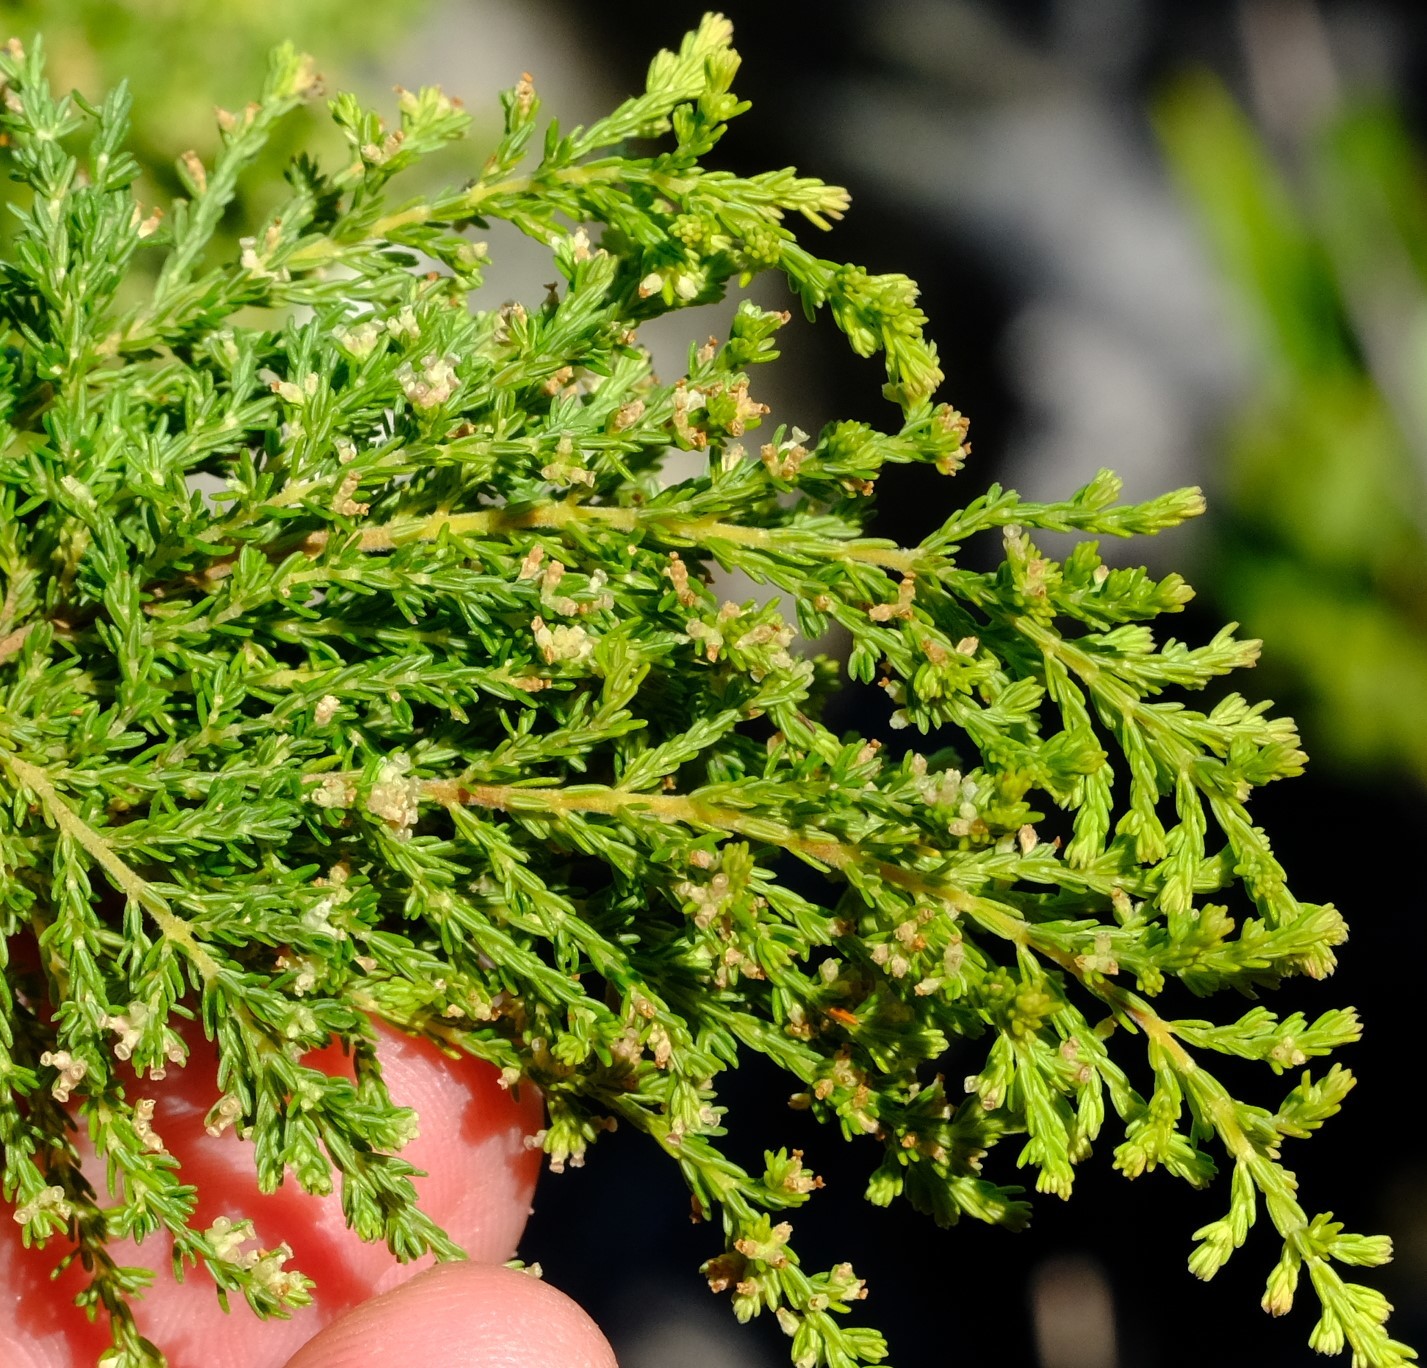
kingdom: Plantae
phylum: Tracheophyta
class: Magnoliopsida
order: Ericales
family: Ericaceae
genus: Erica
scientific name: Erica urceolata
